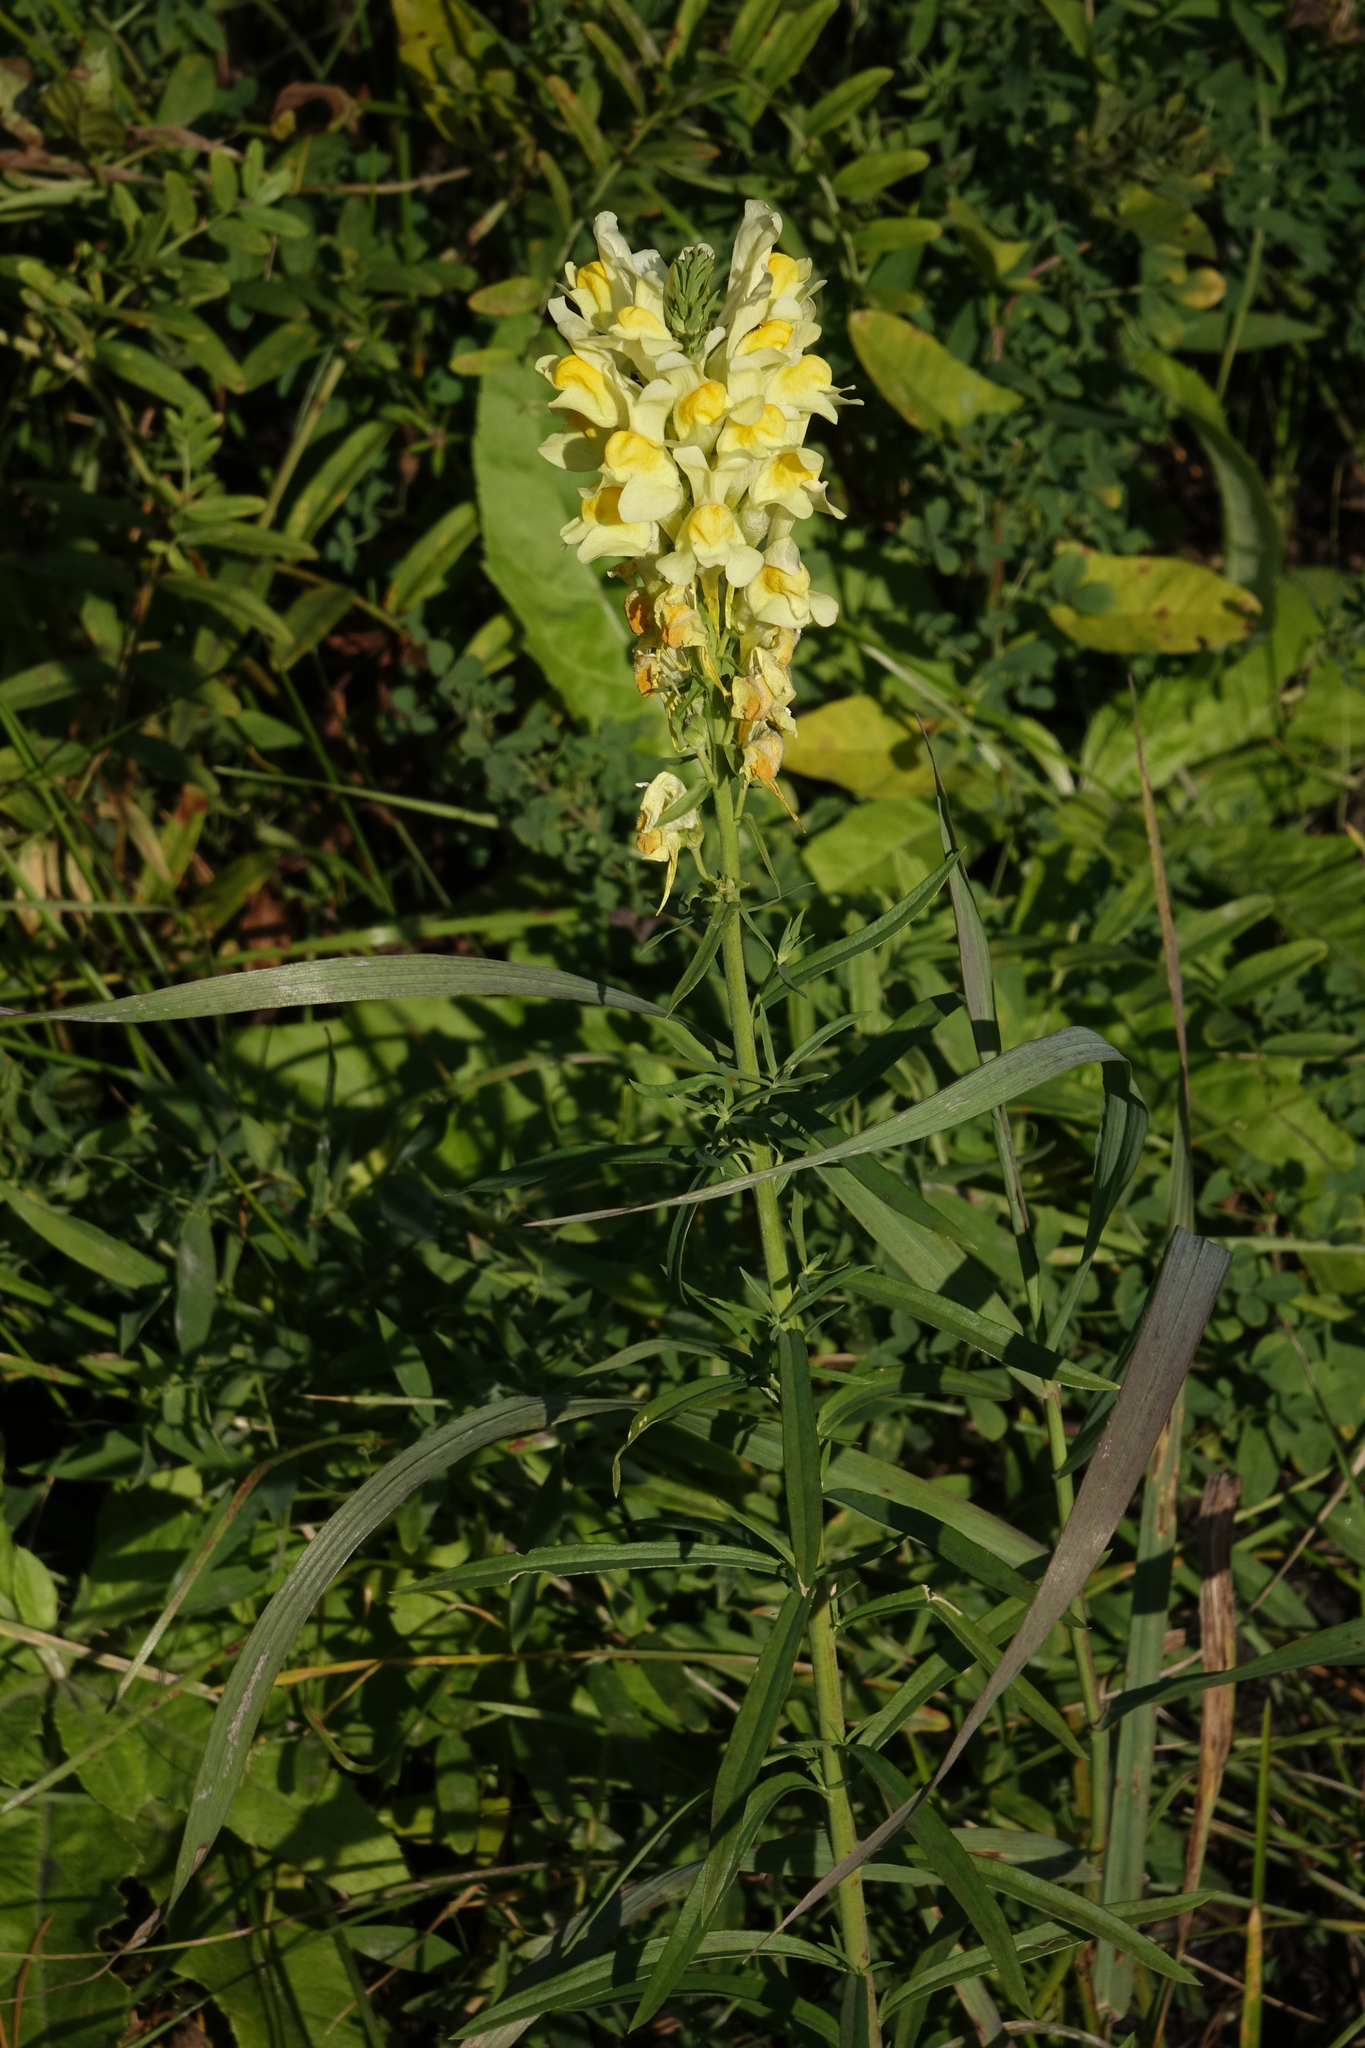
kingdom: Plantae
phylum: Tracheophyta
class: Magnoliopsida
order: Lamiales
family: Plantaginaceae
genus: Linaria
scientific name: Linaria vulgaris
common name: Butter and eggs
